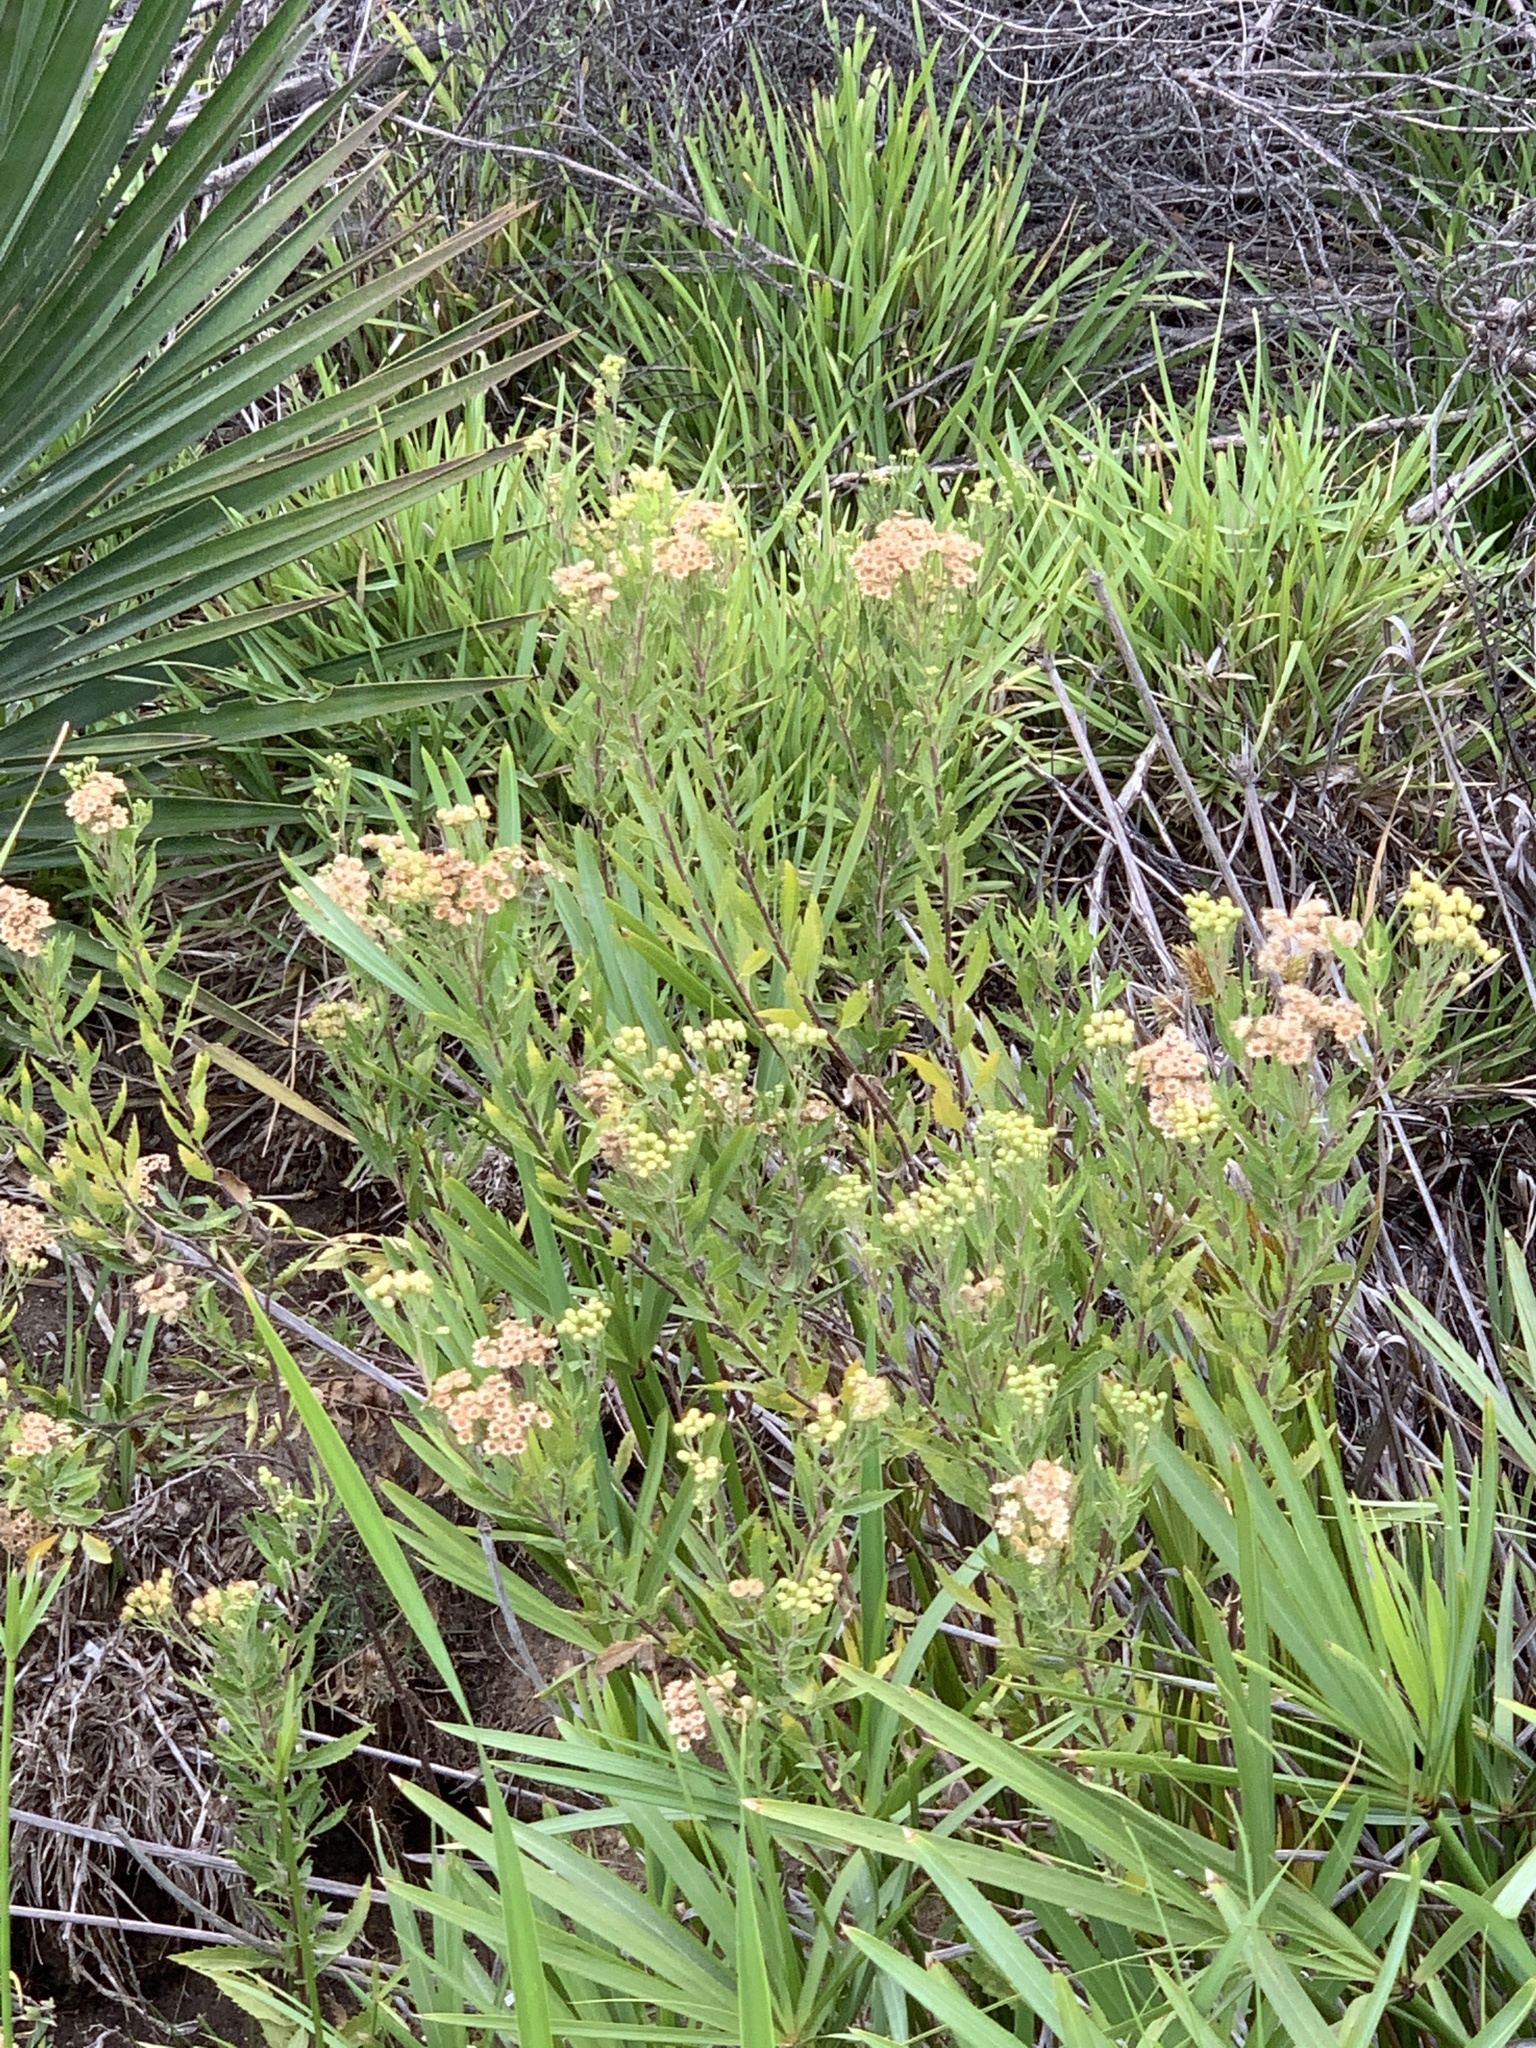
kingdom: Plantae
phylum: Tracheophyta
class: Magnoliopsida
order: Asterales
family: Asteraceae
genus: Nidorella
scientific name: Nidorella ivifolia
